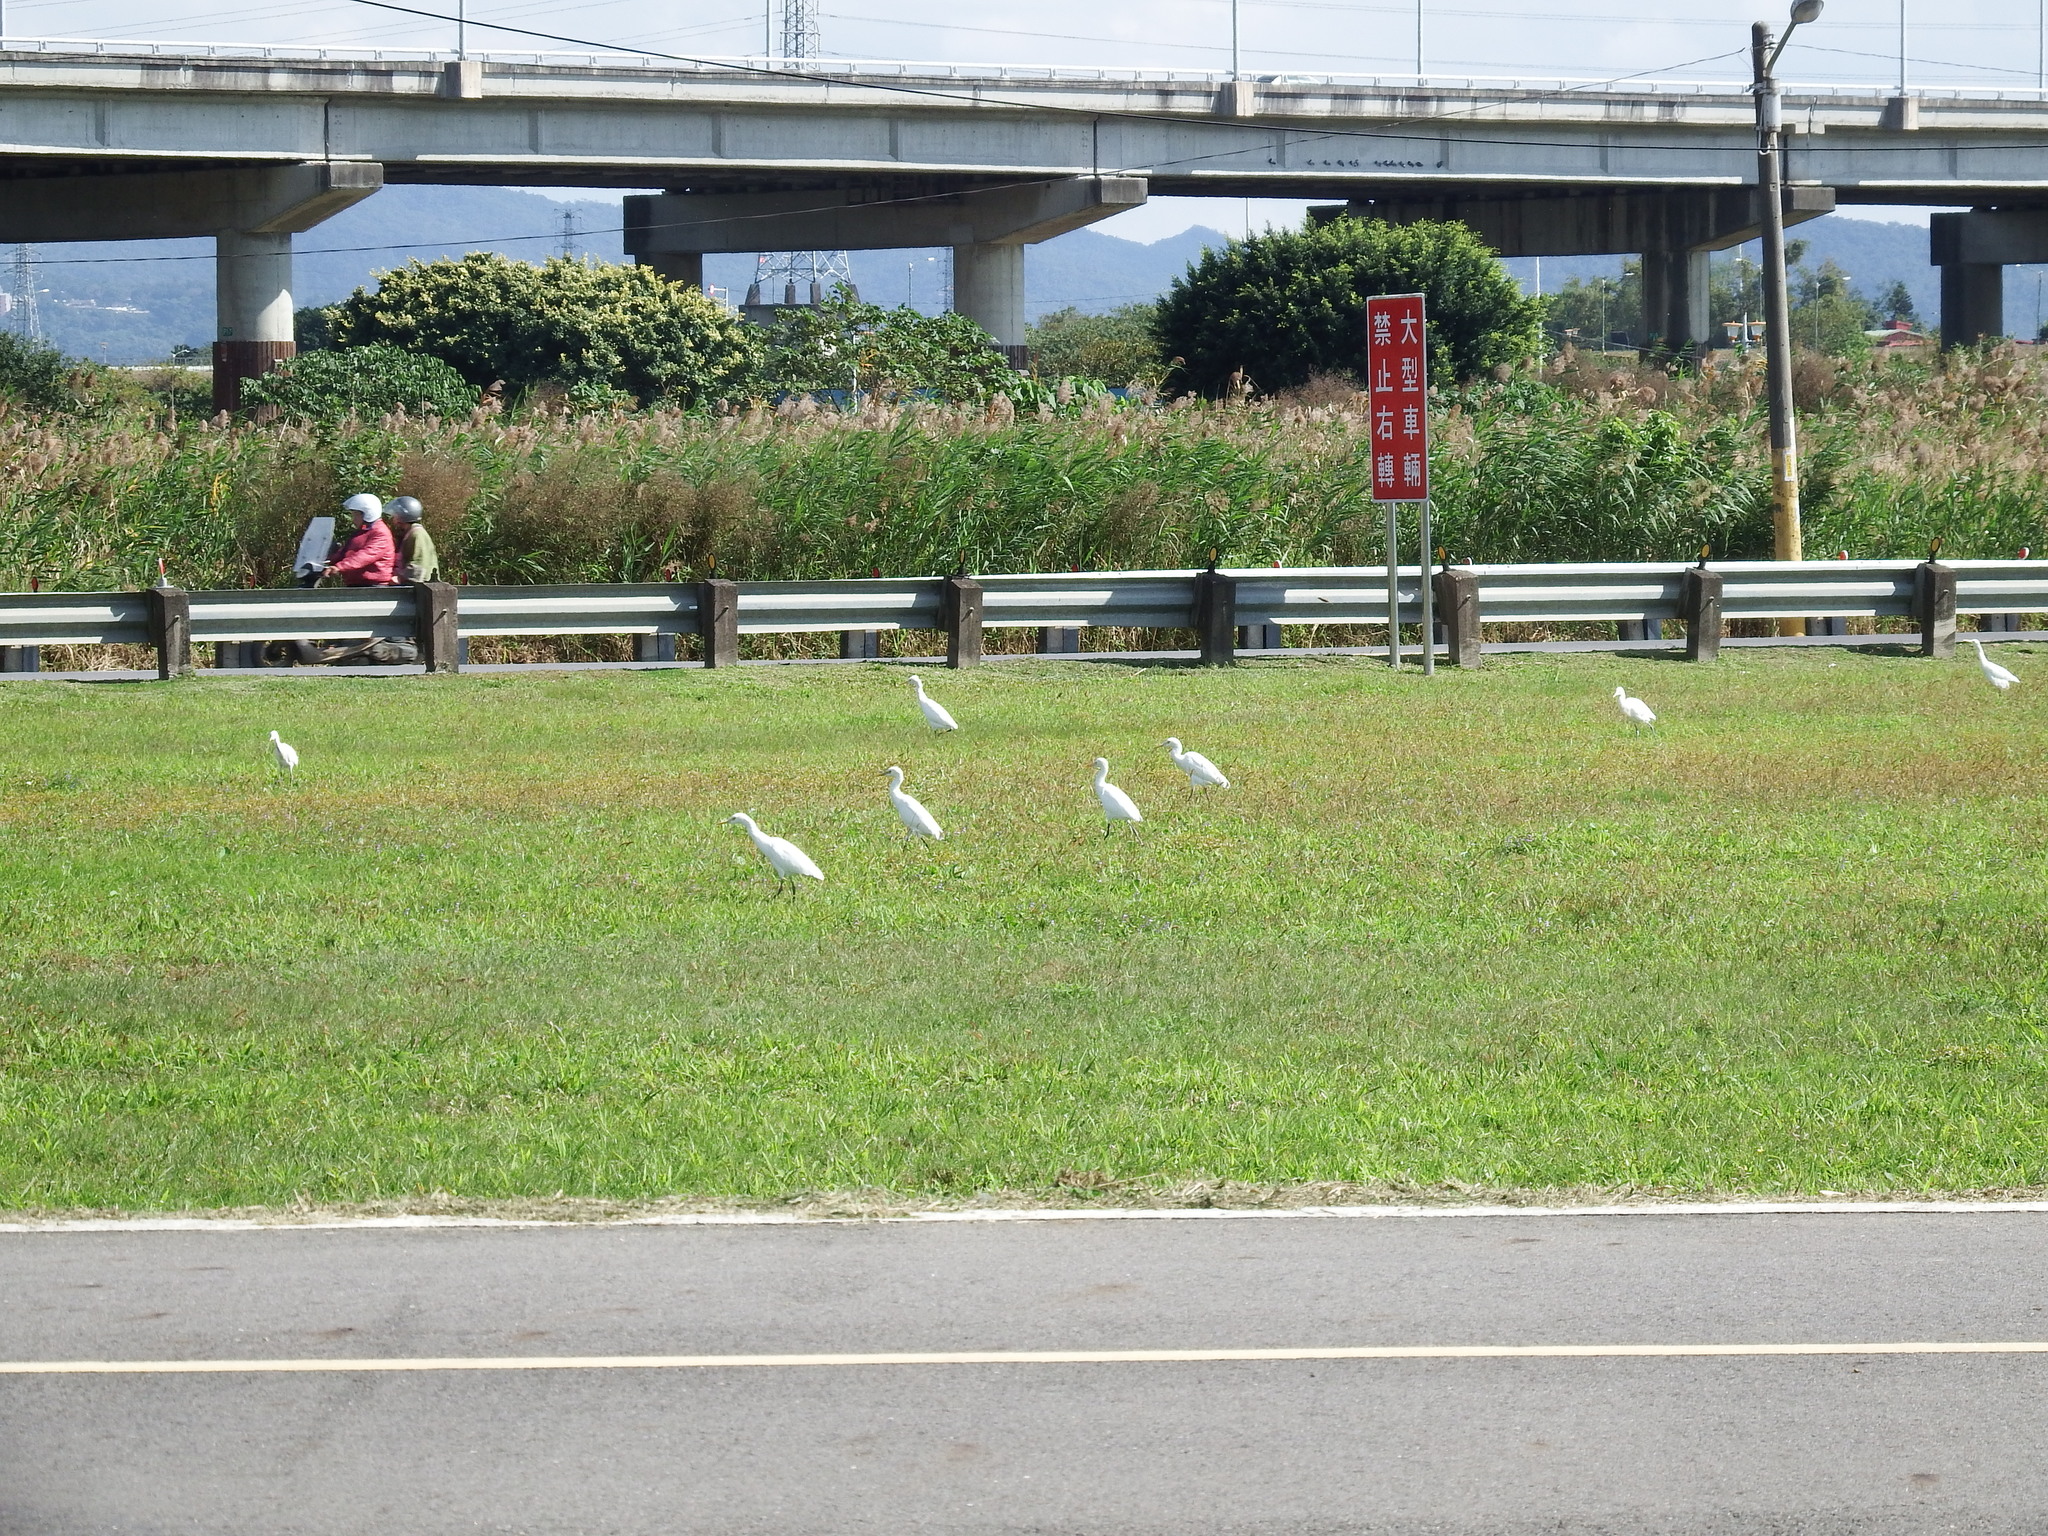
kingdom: Animalia
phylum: Chordata
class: Aves
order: Pelecaniformes
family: Ardeidae
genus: Bubulcus
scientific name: Bubulcus coromandus
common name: Eastern cattle egret
